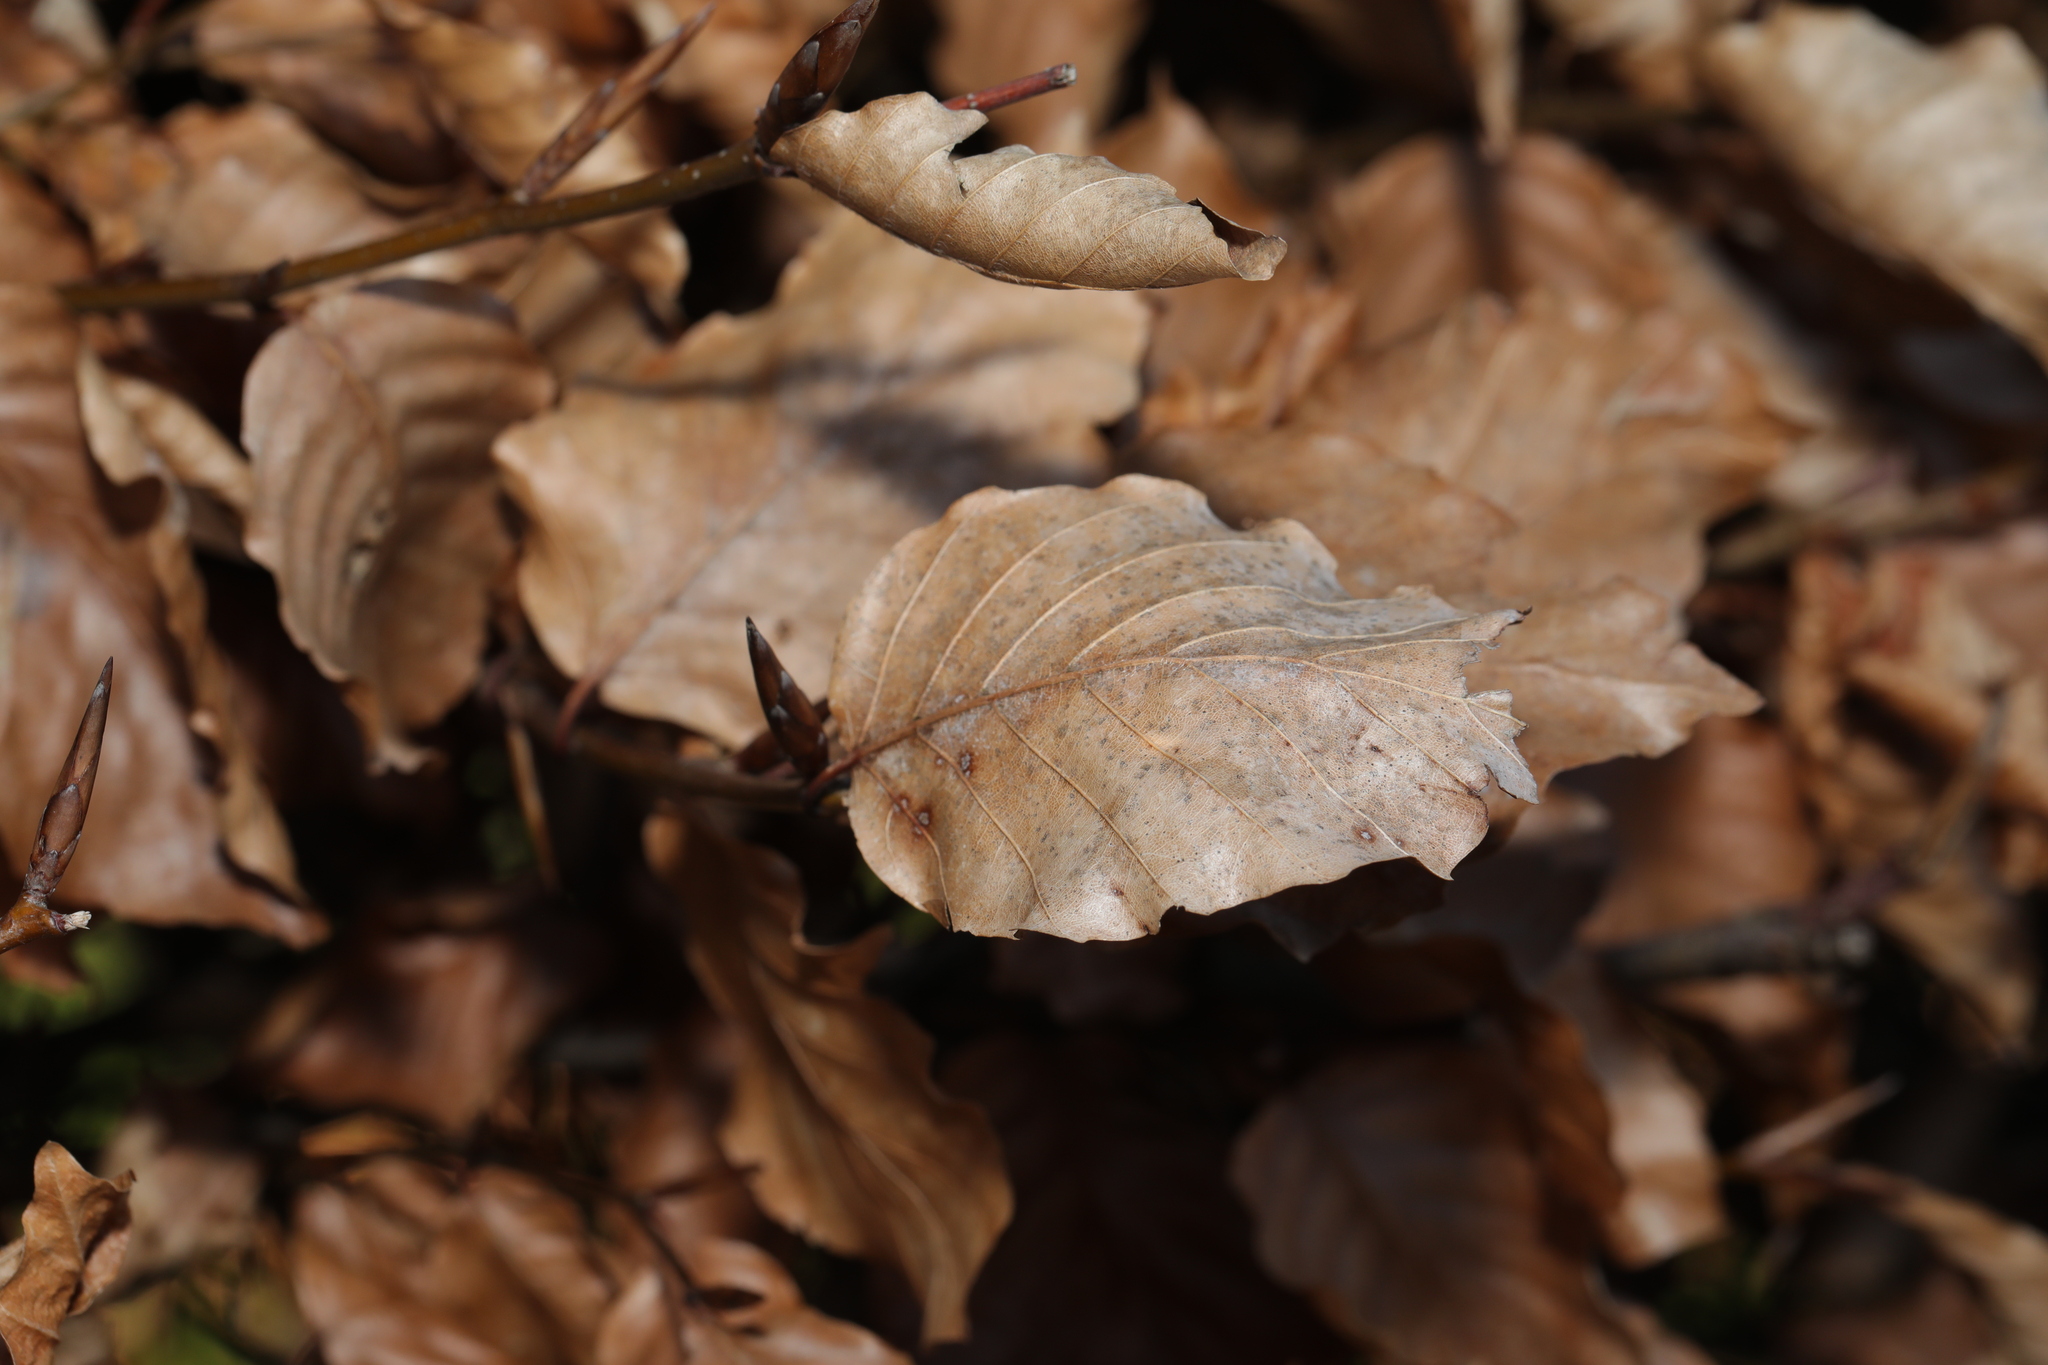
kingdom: Plantae
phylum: Tracheophyta
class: Magnoliopsida
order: Fagales
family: Fagaceae
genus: Fagus
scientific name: Fagus sylvatica
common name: Beech
